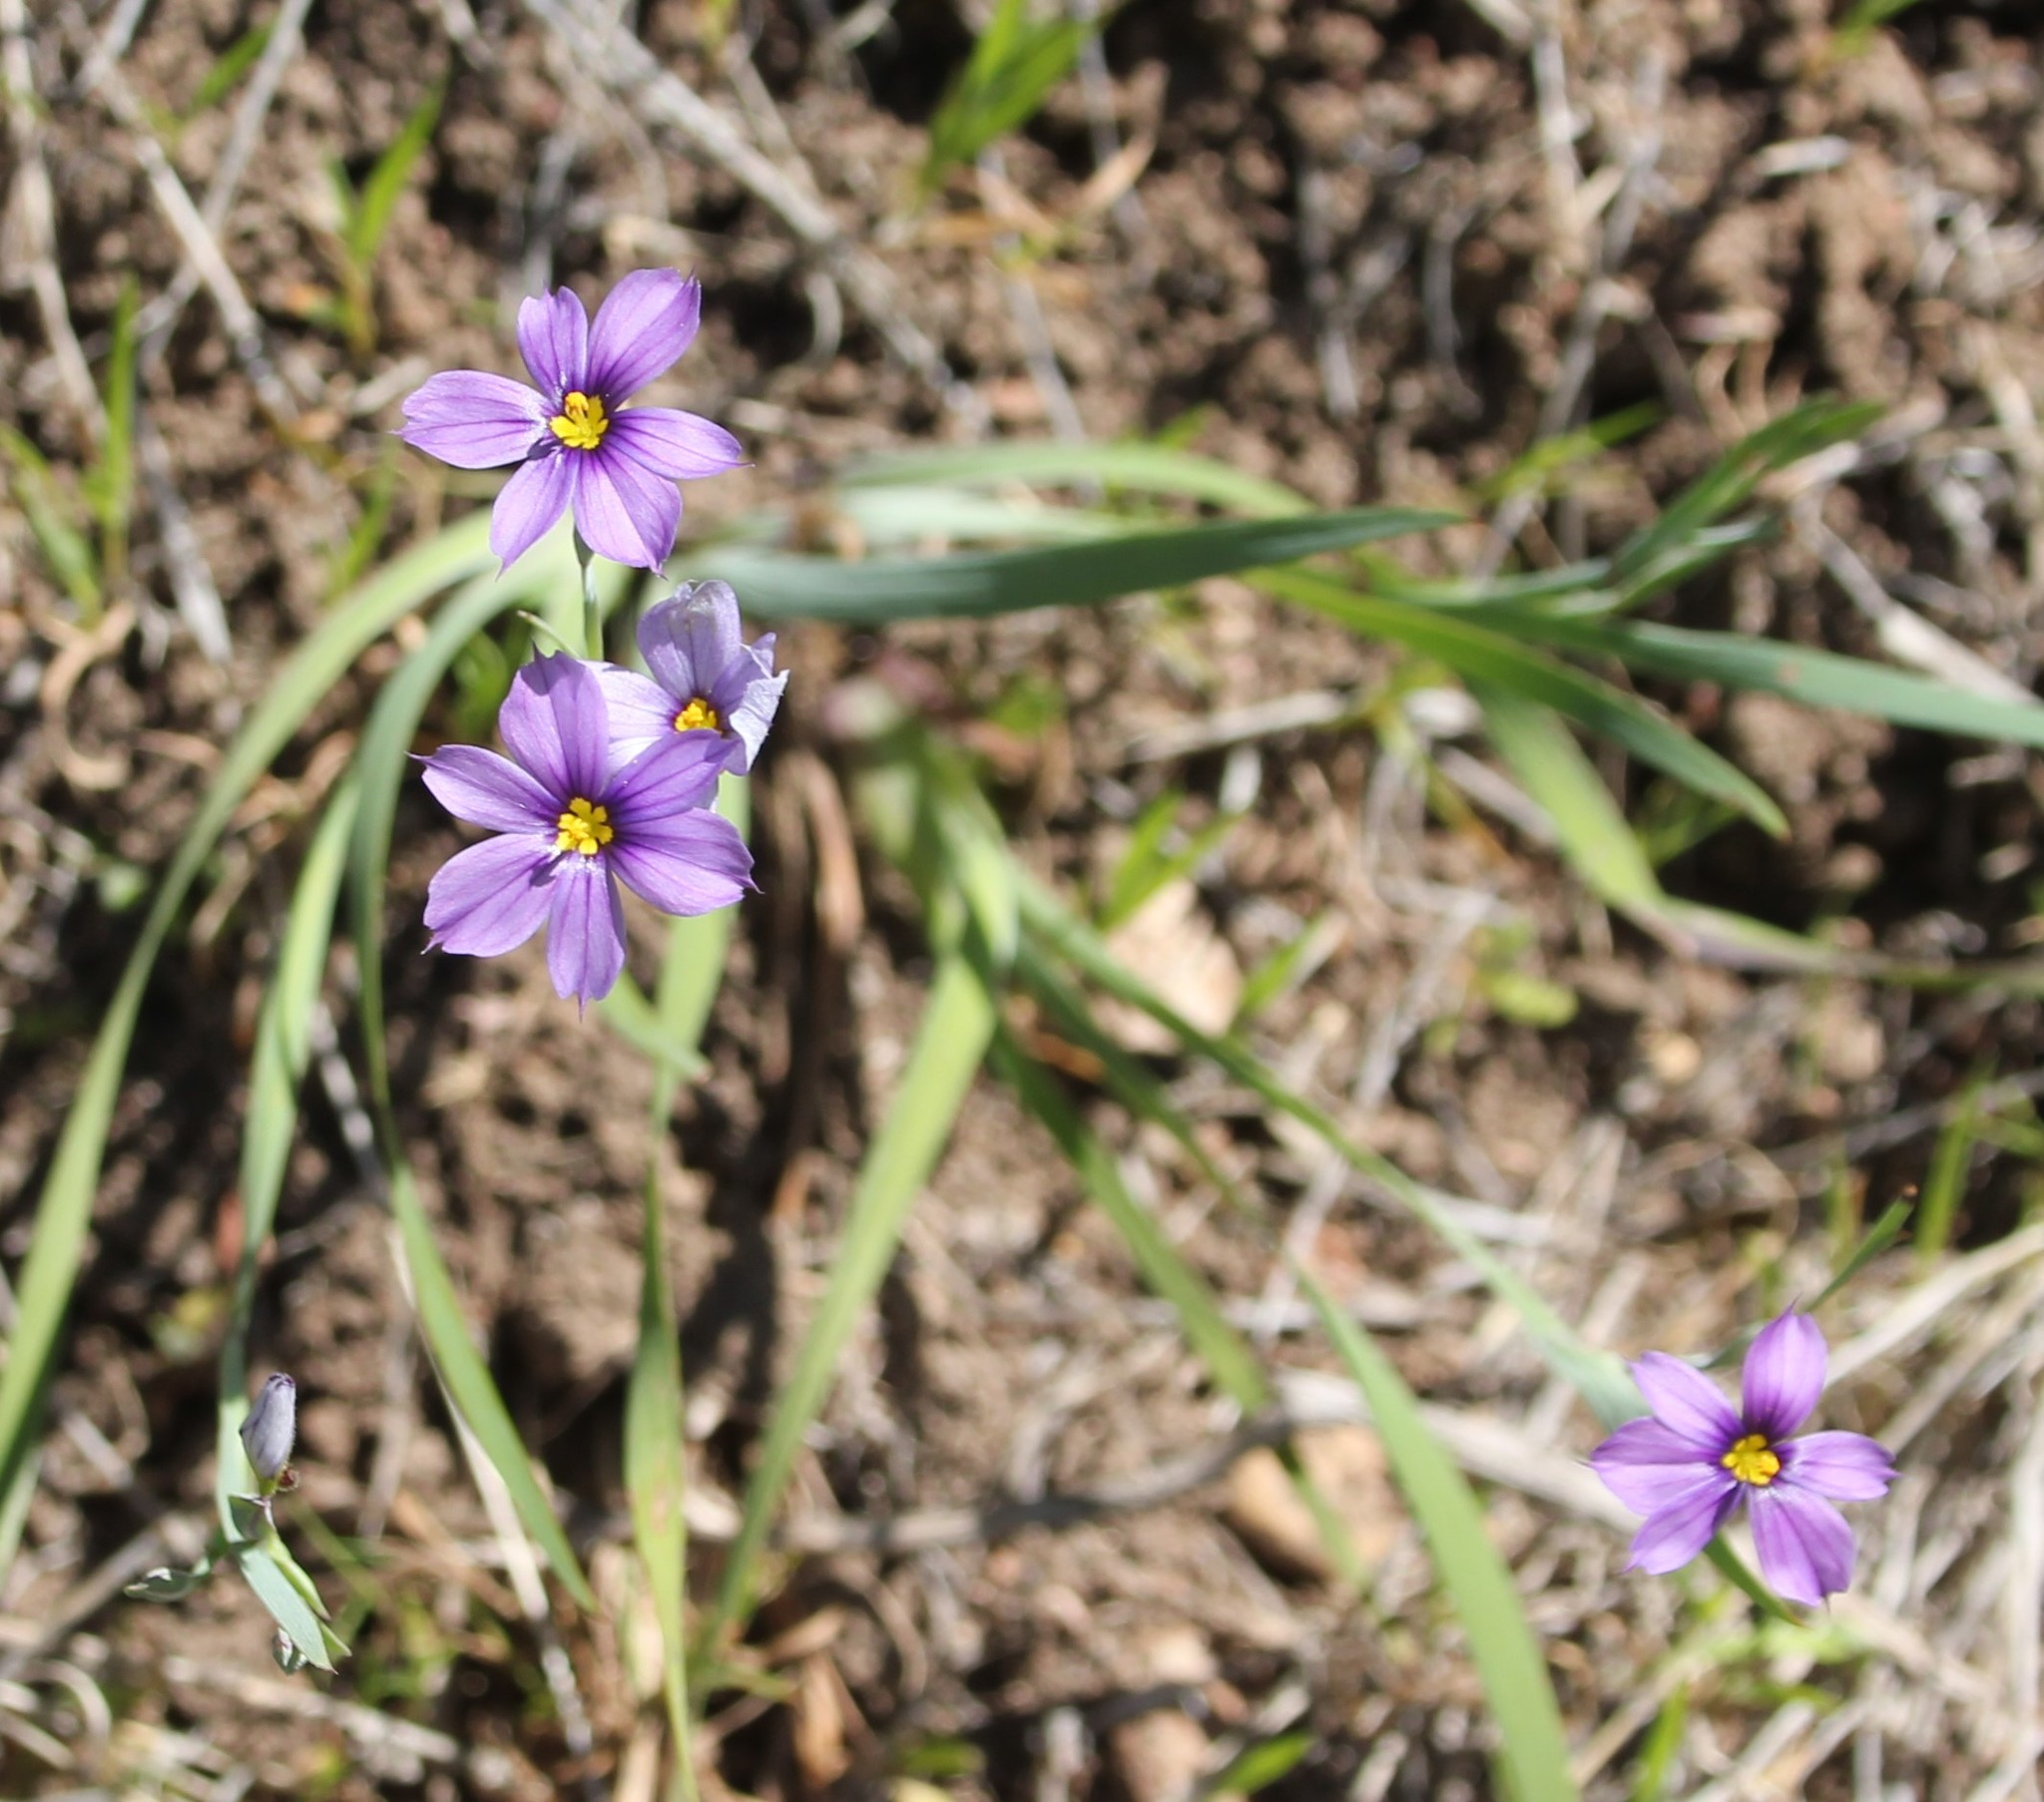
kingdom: Plantae
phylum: Tracheophyta
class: Liliopsida
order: Asparagales
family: Iridaceae
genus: Sisyrinchium
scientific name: Sisyrinchium bellum
